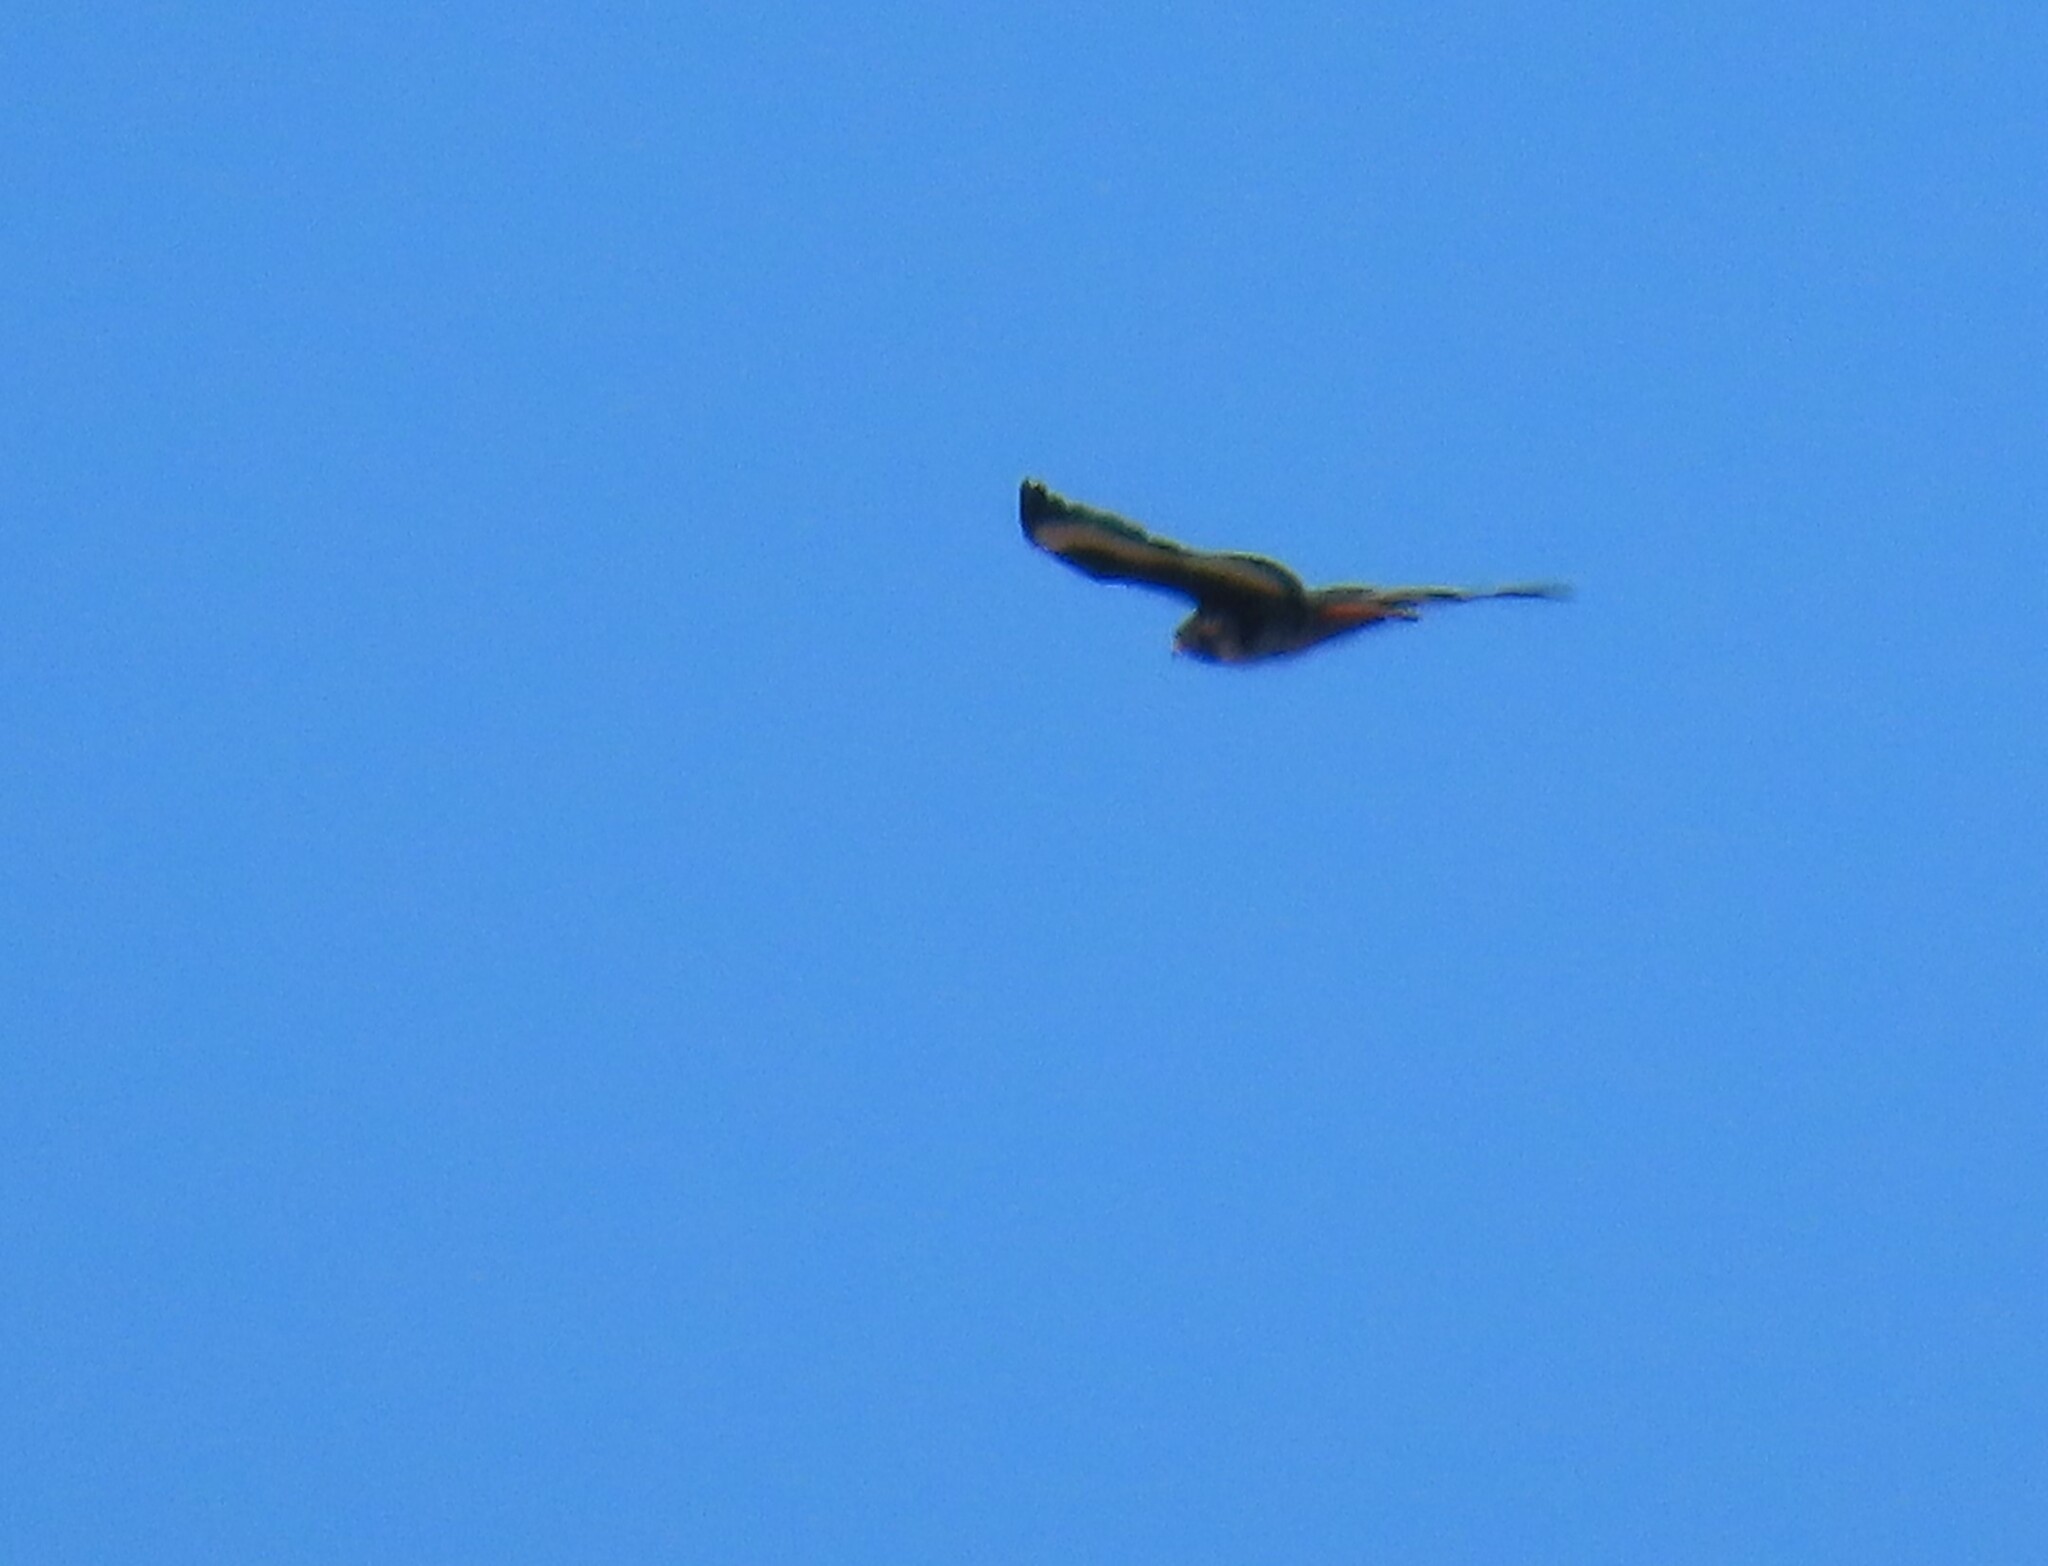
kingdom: Animalia
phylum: Chordata
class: Aves
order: Accipitriformes
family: Accipitridae
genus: Buteo
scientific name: Buteo rufofuscus
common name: Jackal buzzard
